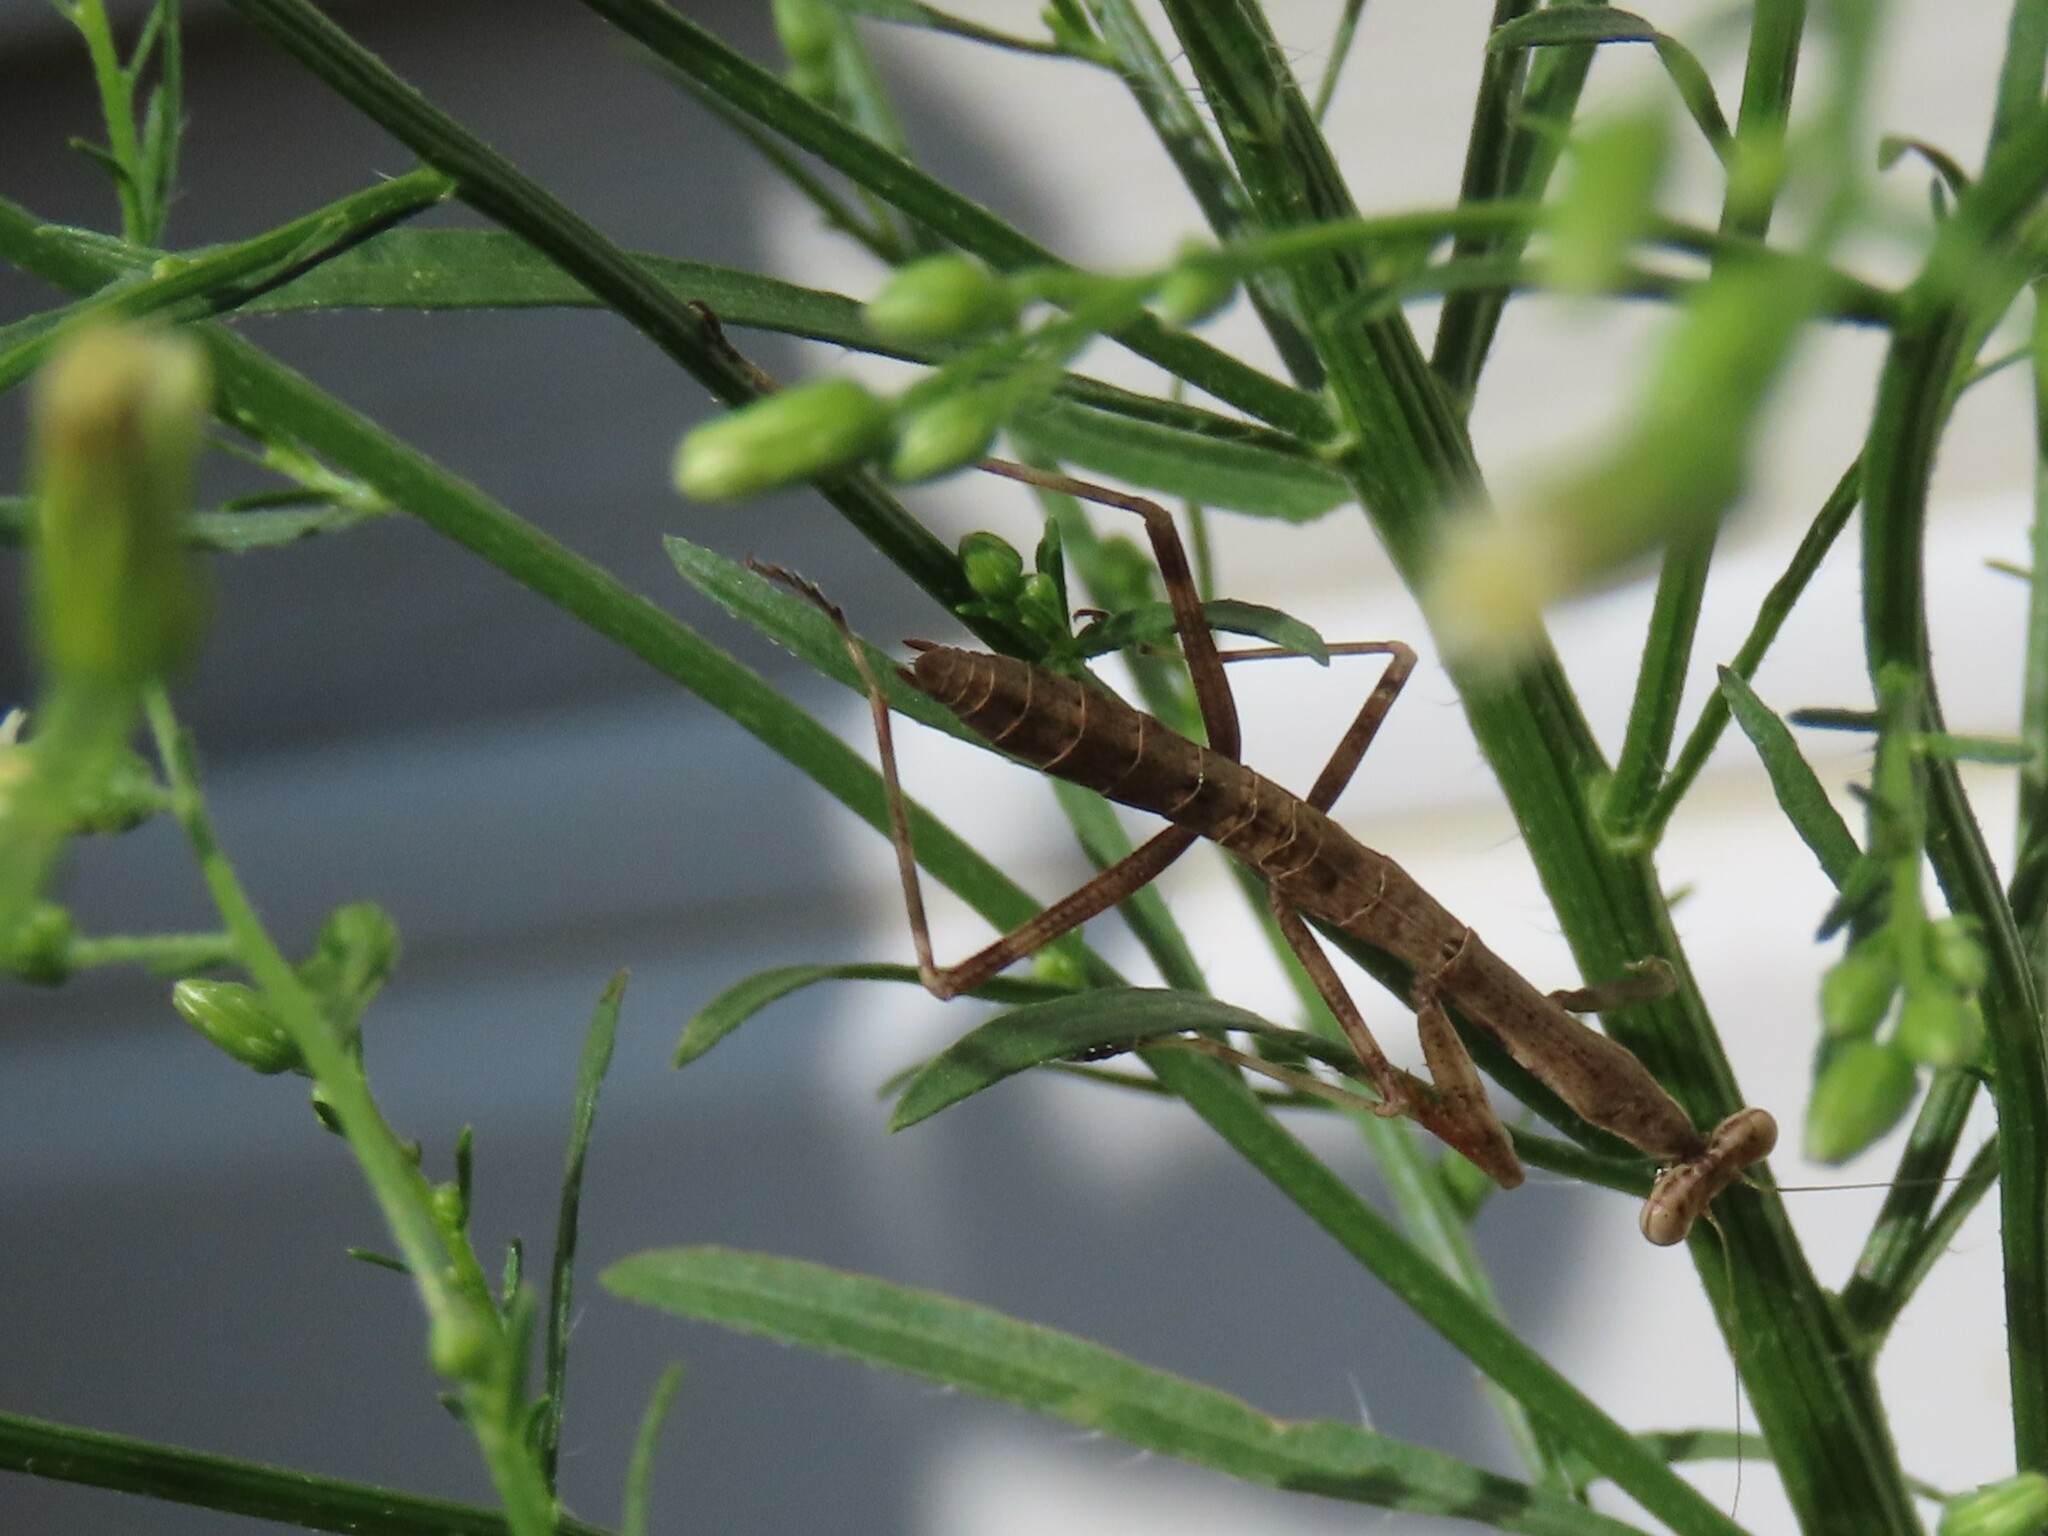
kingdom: Animalia
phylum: Arthropoda
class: Insecta
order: Mantodea
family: Mantidae
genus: Stagmomantis
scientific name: Stagmomantis carolina
